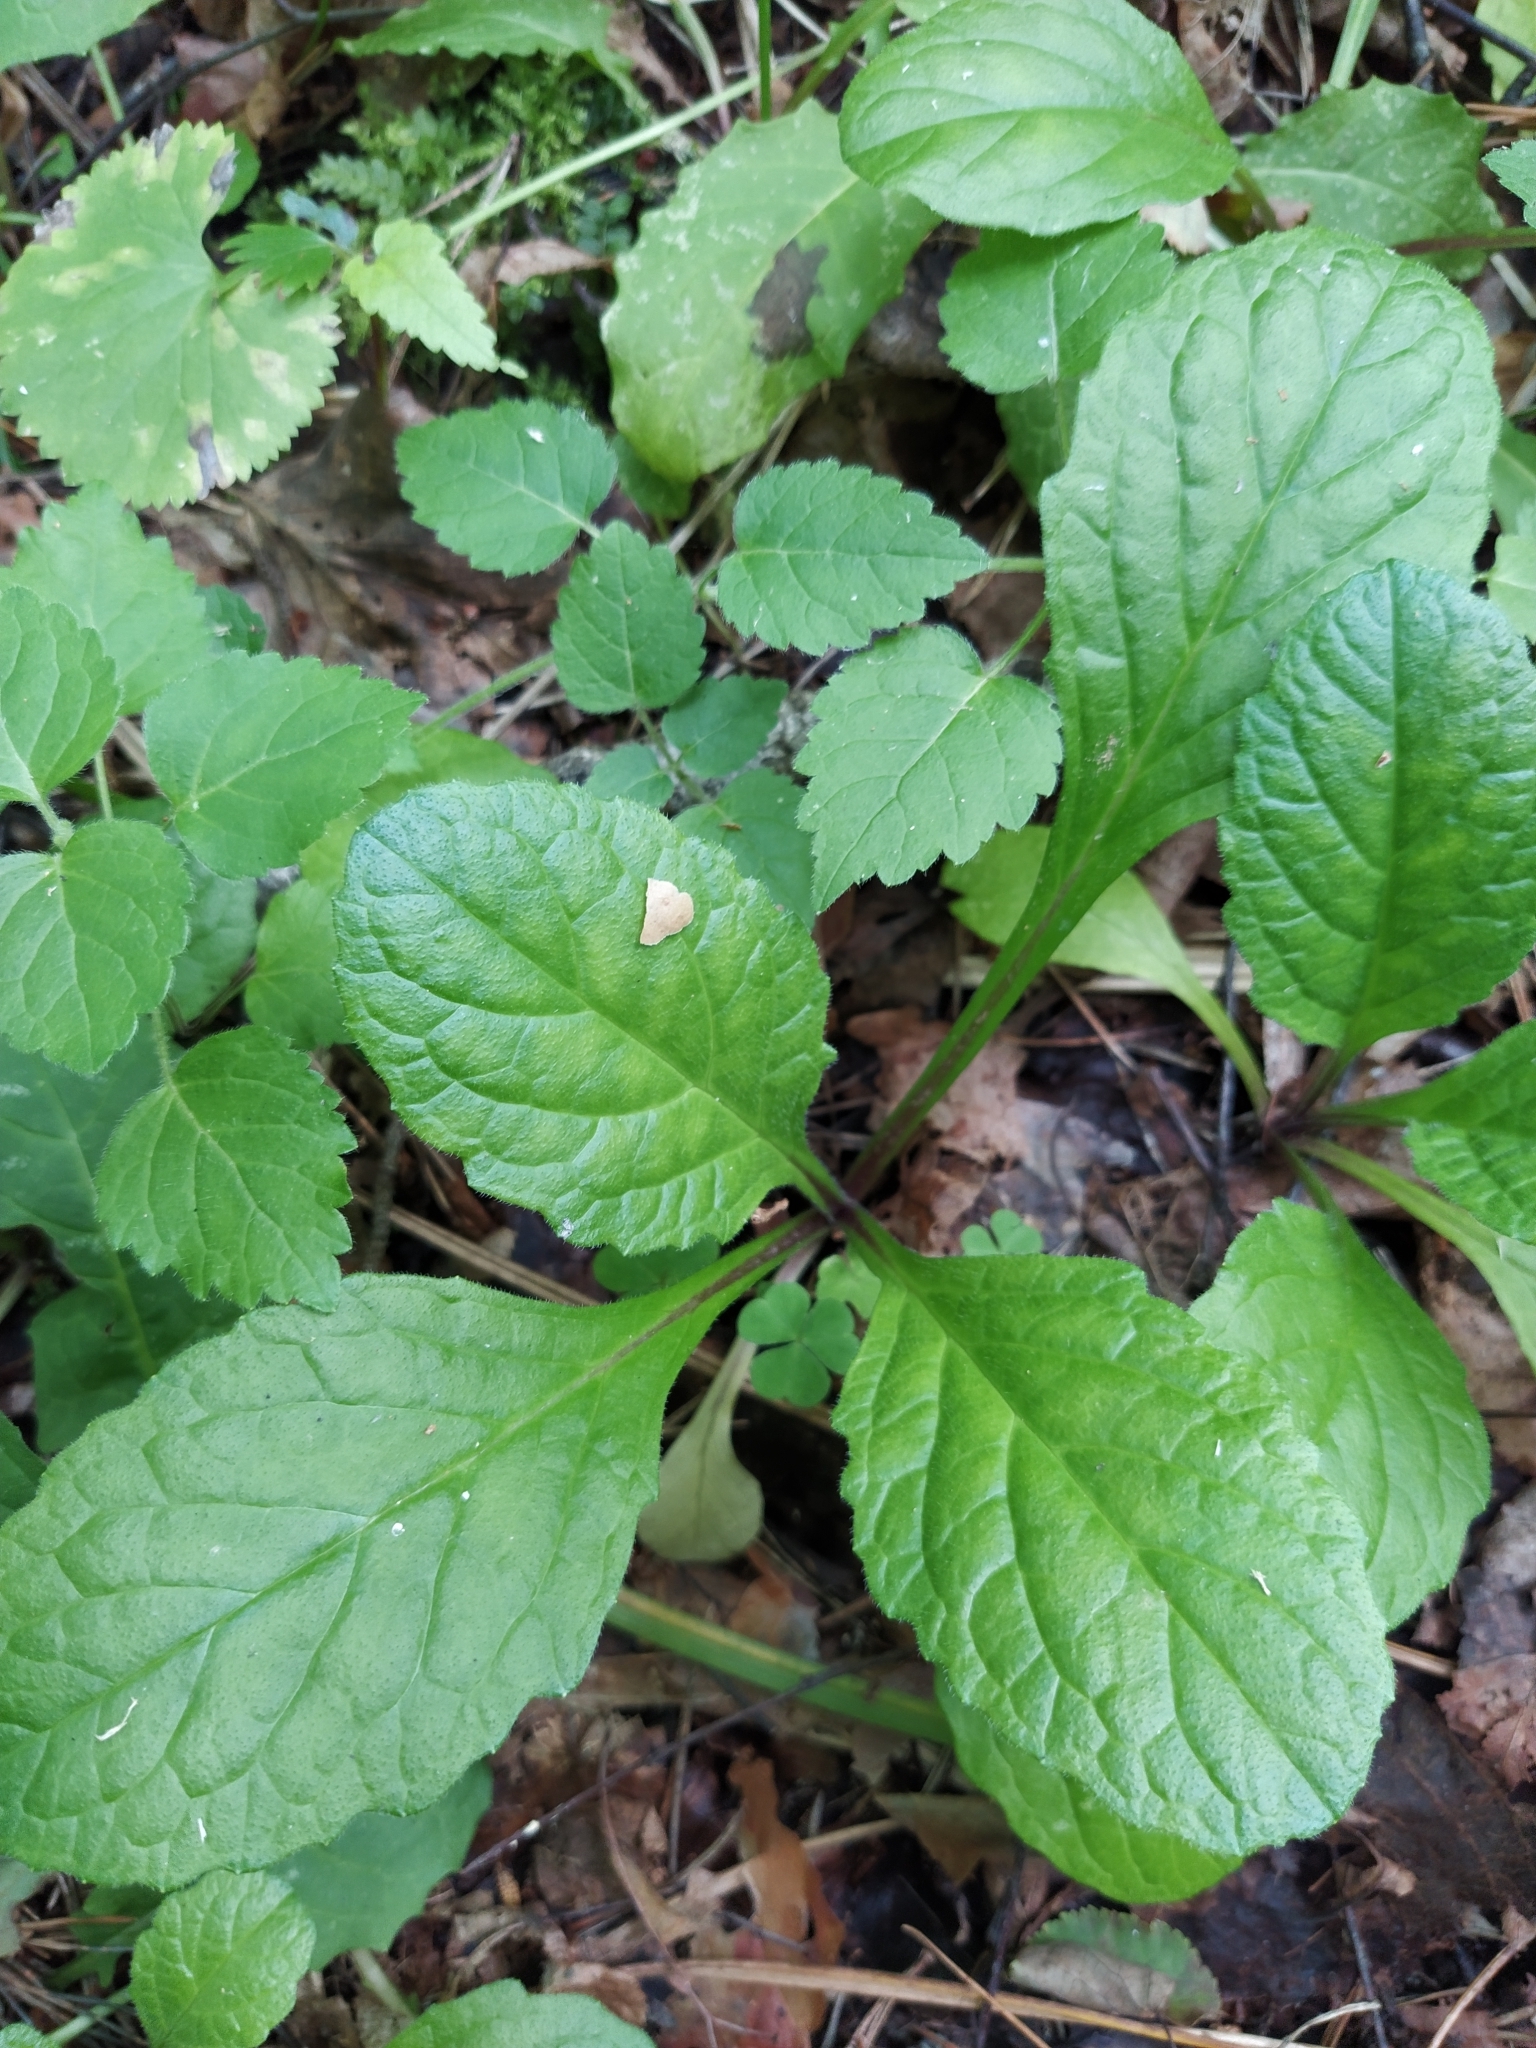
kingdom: Plantae
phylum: Tracheophyta
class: Magnoliopsida
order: Lamiales
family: Lamiaceae
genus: Ajuga
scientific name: Ajuga reptans
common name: Bugle
